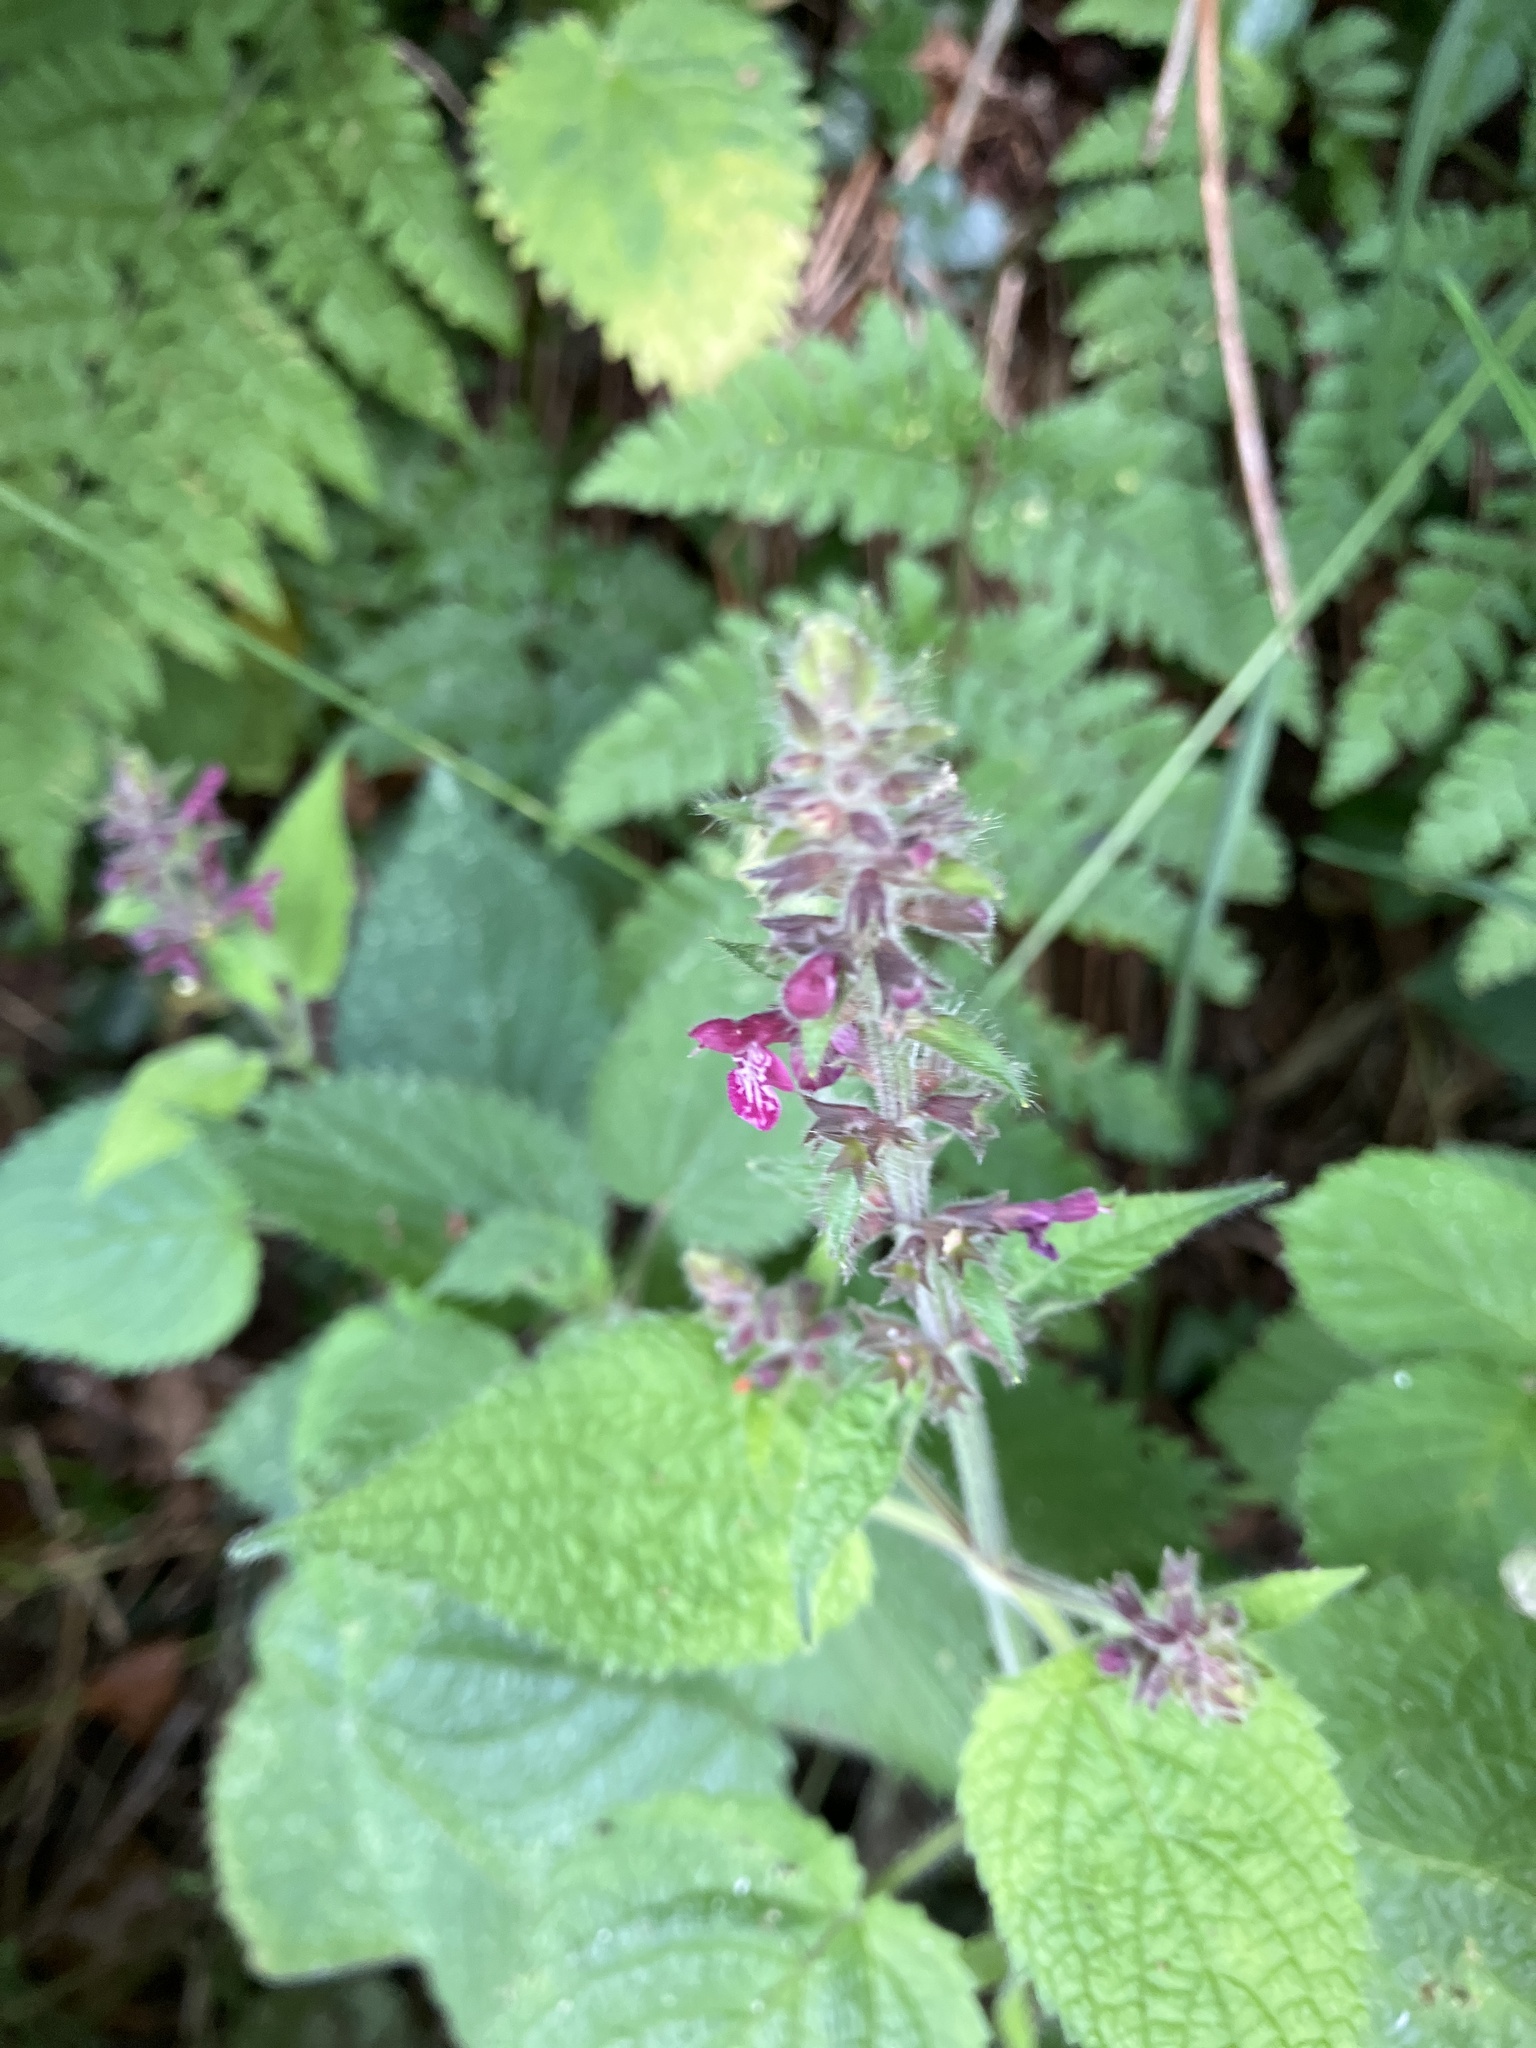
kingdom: Plantae
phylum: Tracheophyta
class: Magnoliopsida
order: Lamiales
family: Lamiaceae
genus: Stachys
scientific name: Stachys sylvatica
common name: Hedge woundwort
